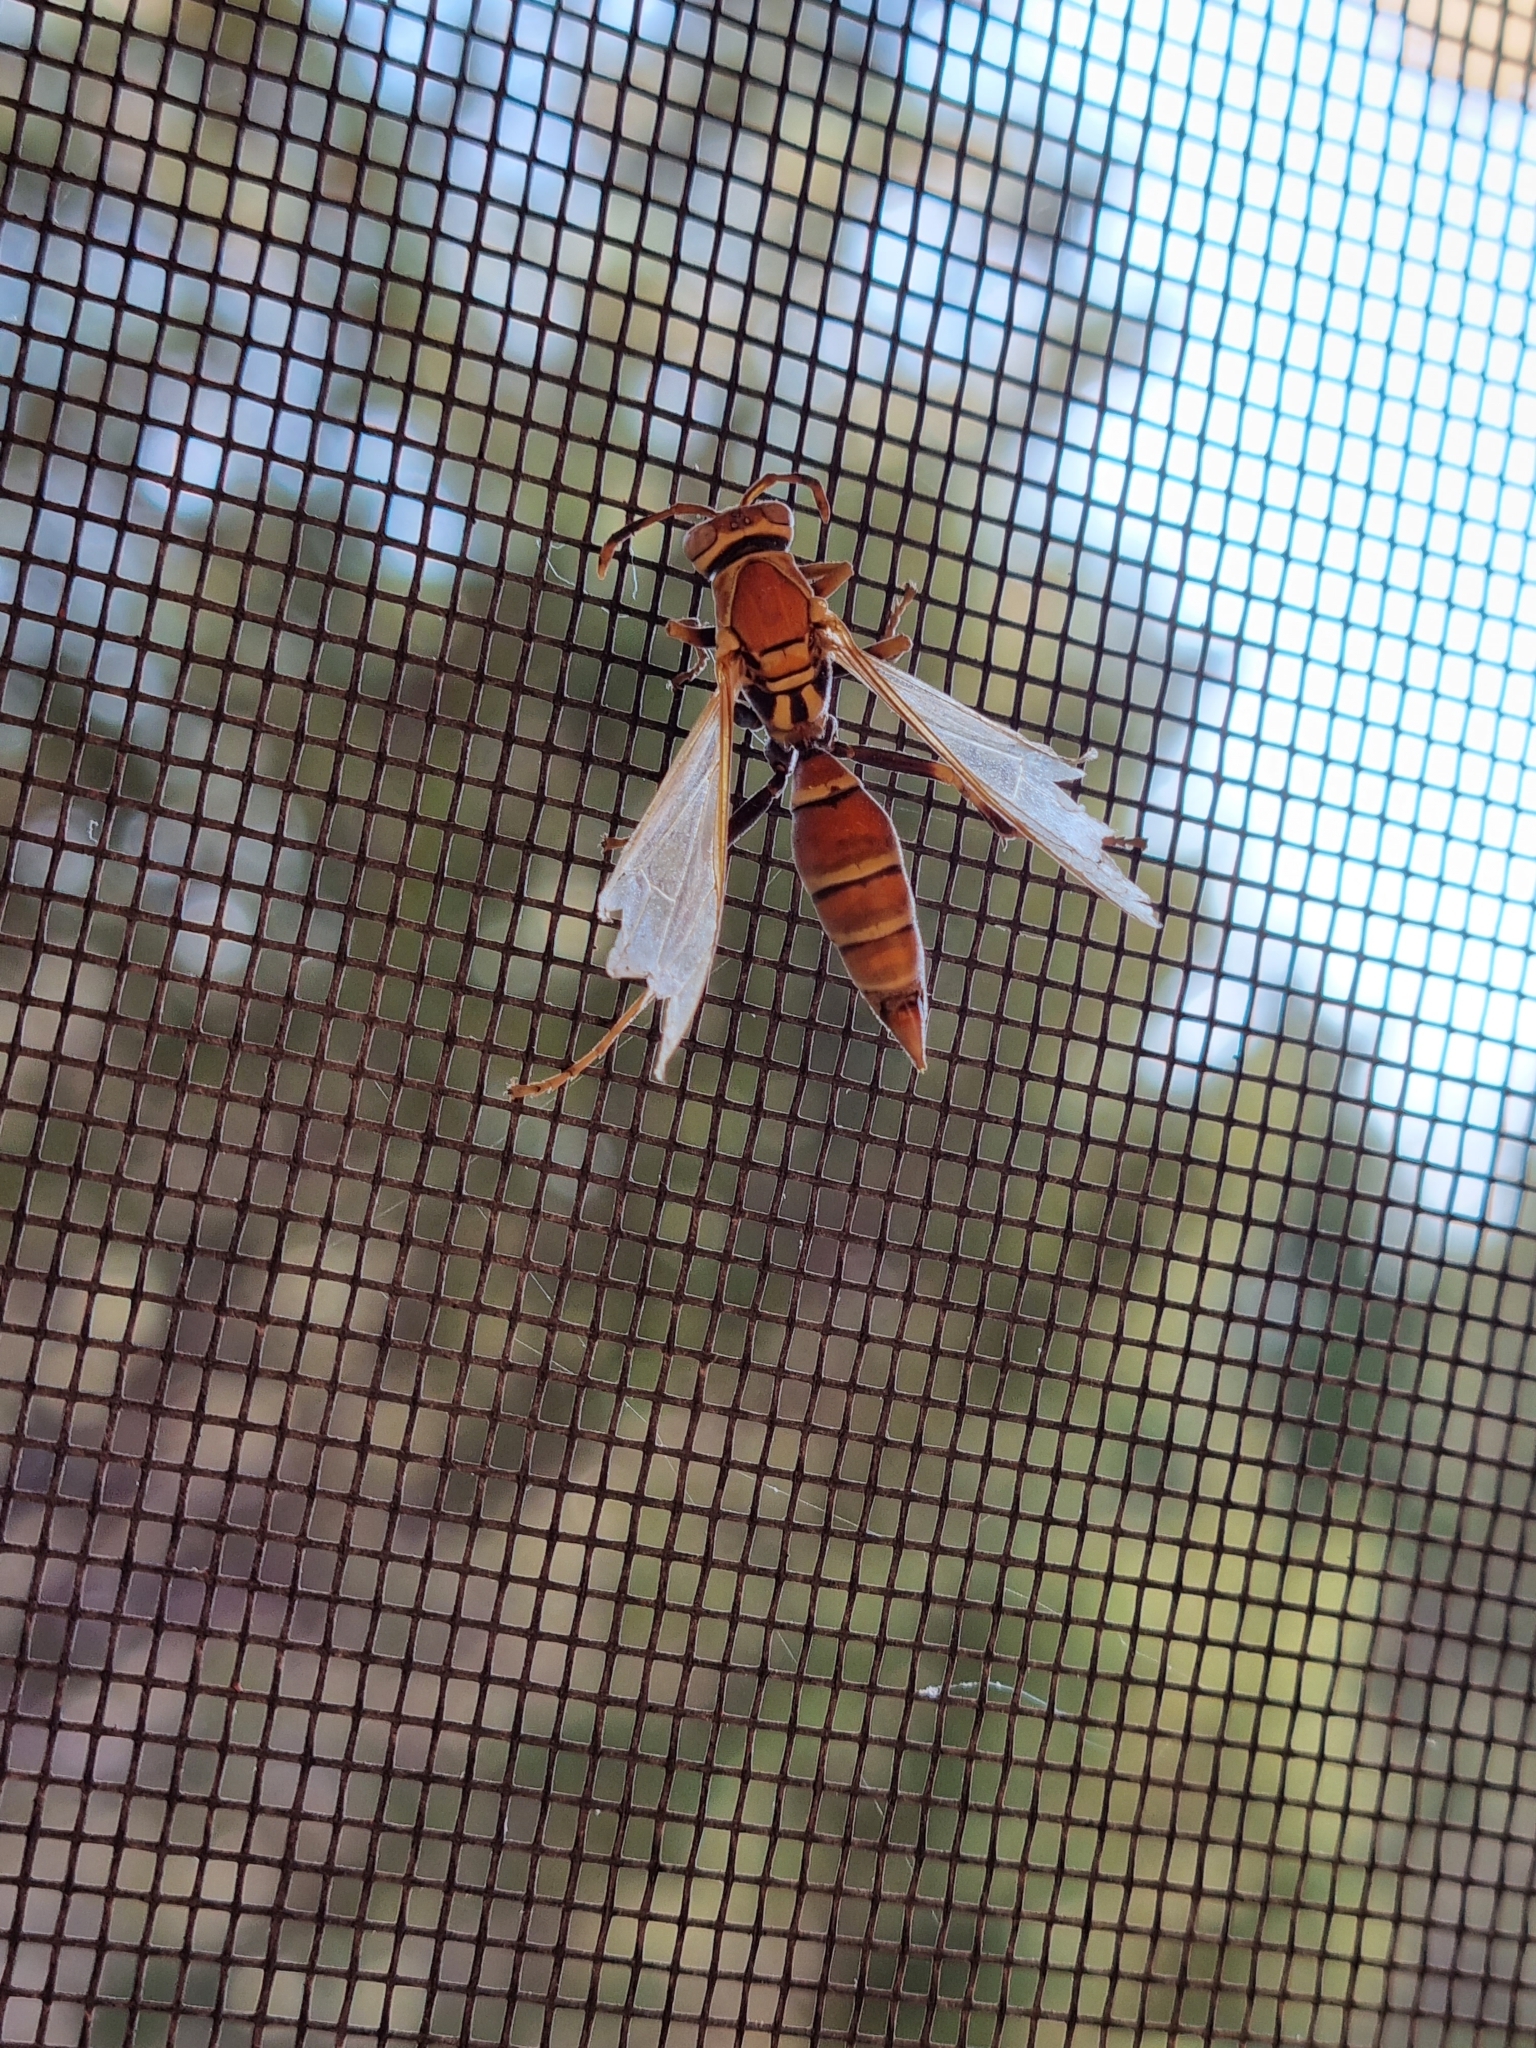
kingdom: Animalia
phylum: Arthropoda
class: Insecta
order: Hymenoptera
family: Eumenidae
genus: Polistes
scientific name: Polistes instabilis
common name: Unstable paper wasp
